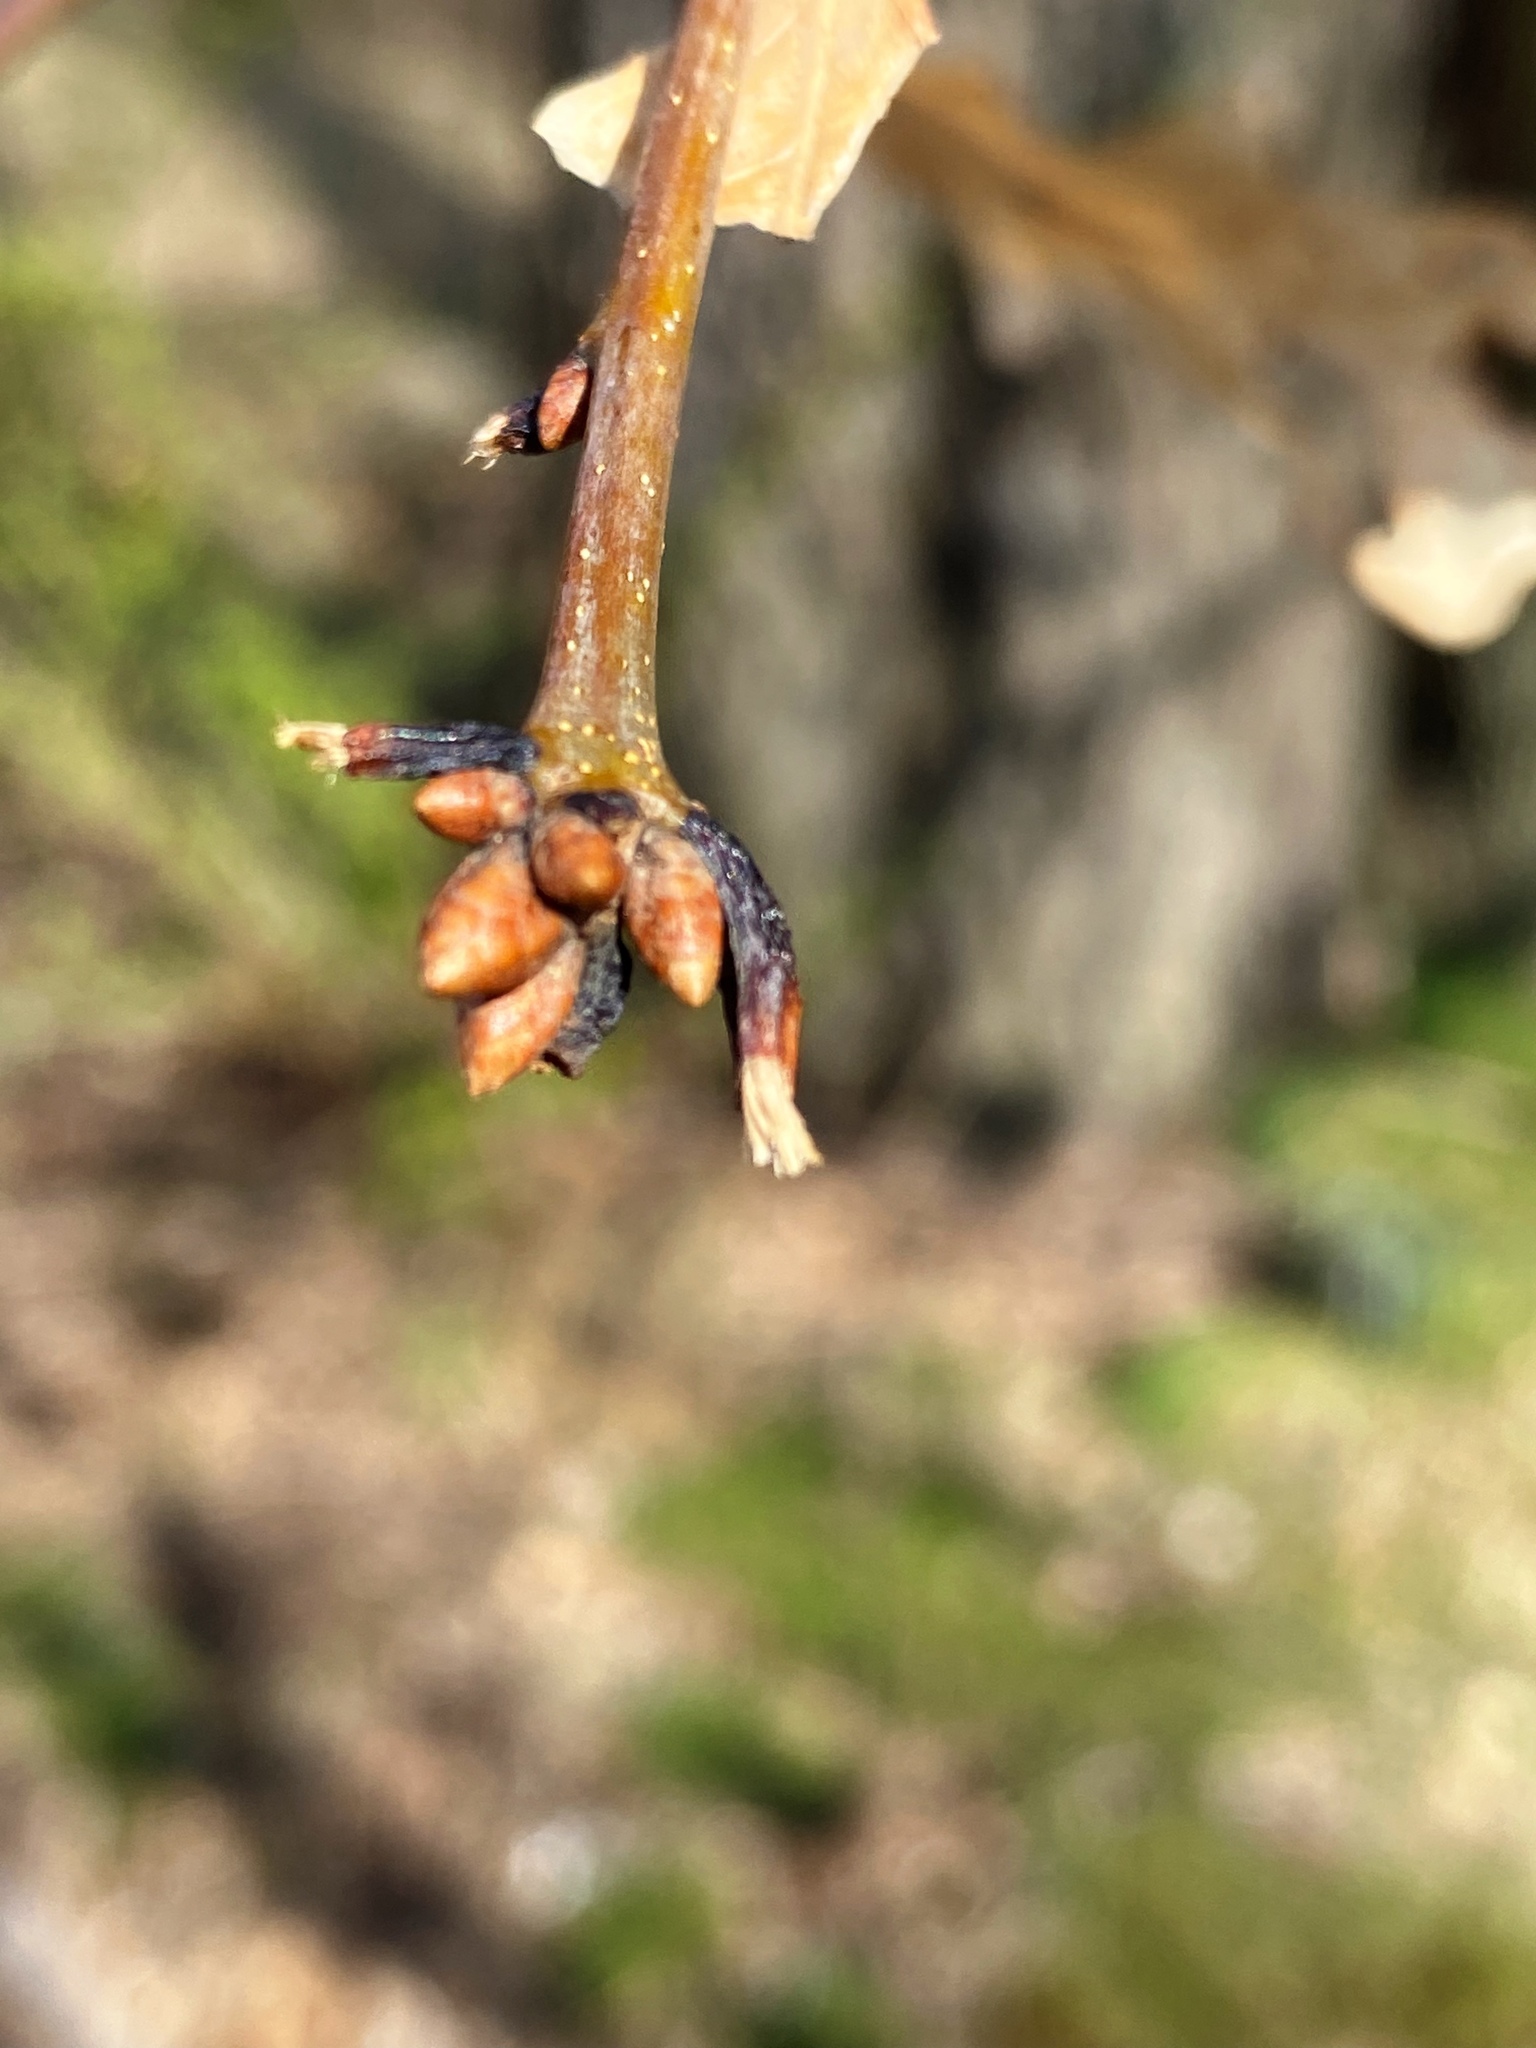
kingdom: Plantae
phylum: Tracheophyta
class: Magnoliopsida
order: Fagales
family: Fagaceae
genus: Quercus
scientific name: Quercus alba
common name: White oak
